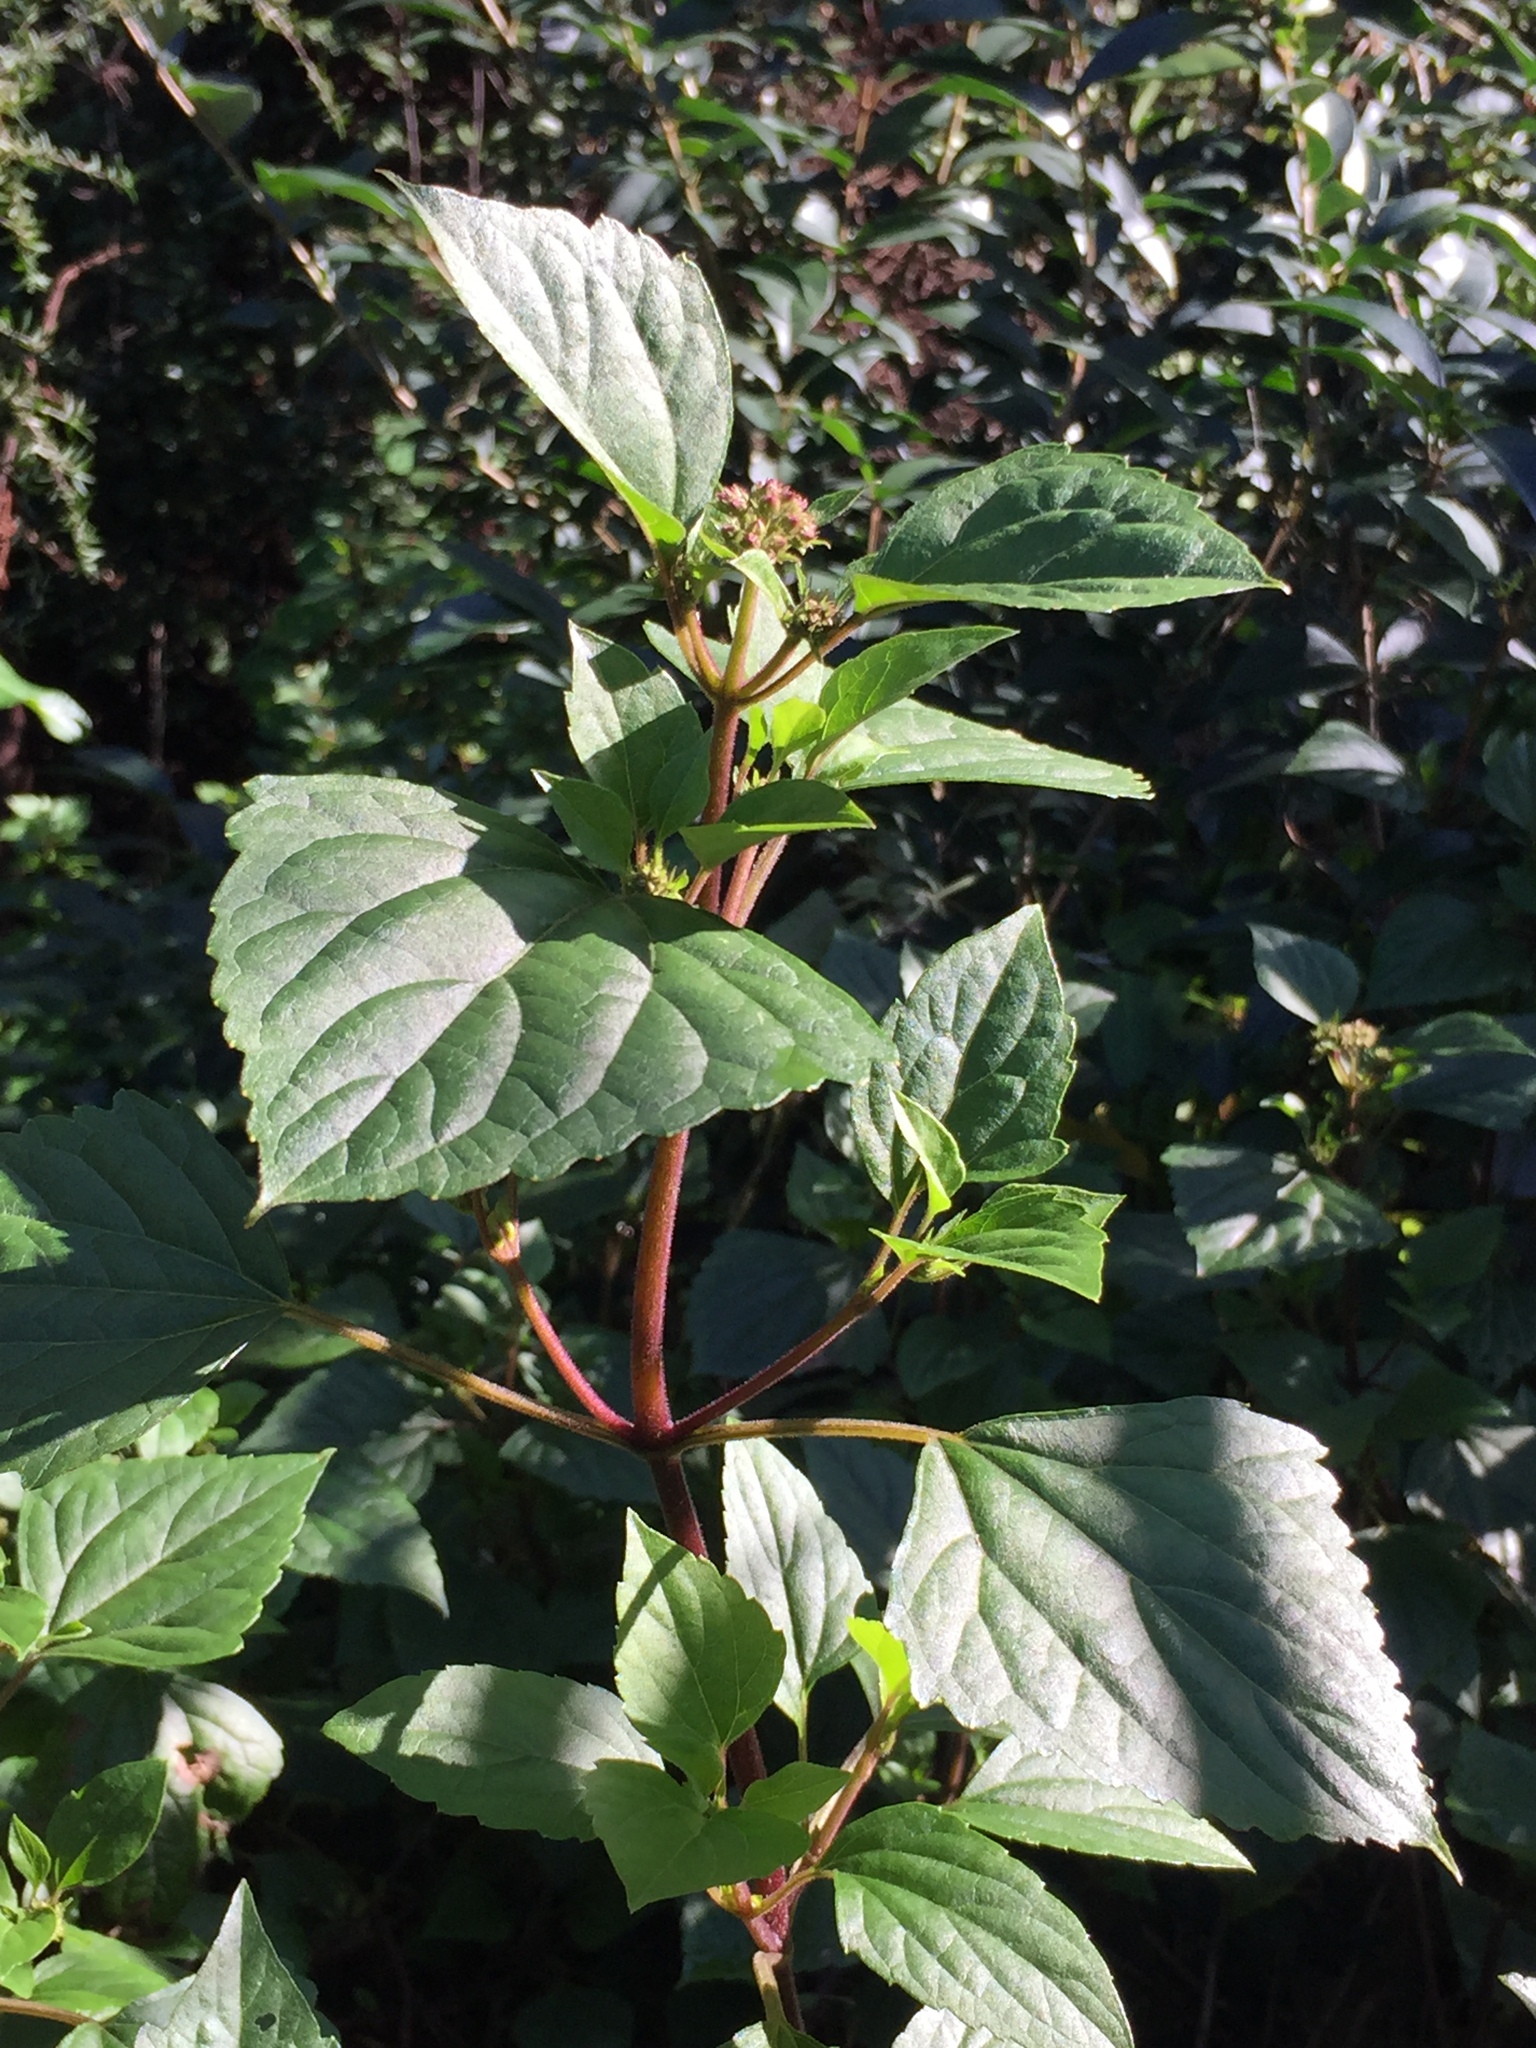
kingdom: Plantae
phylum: Tracheophyta
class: Magnoliopsida
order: Asterales
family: Asteraceae
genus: Ageratina
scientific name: Ageratina adenophora
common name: Sticky snakeroot
